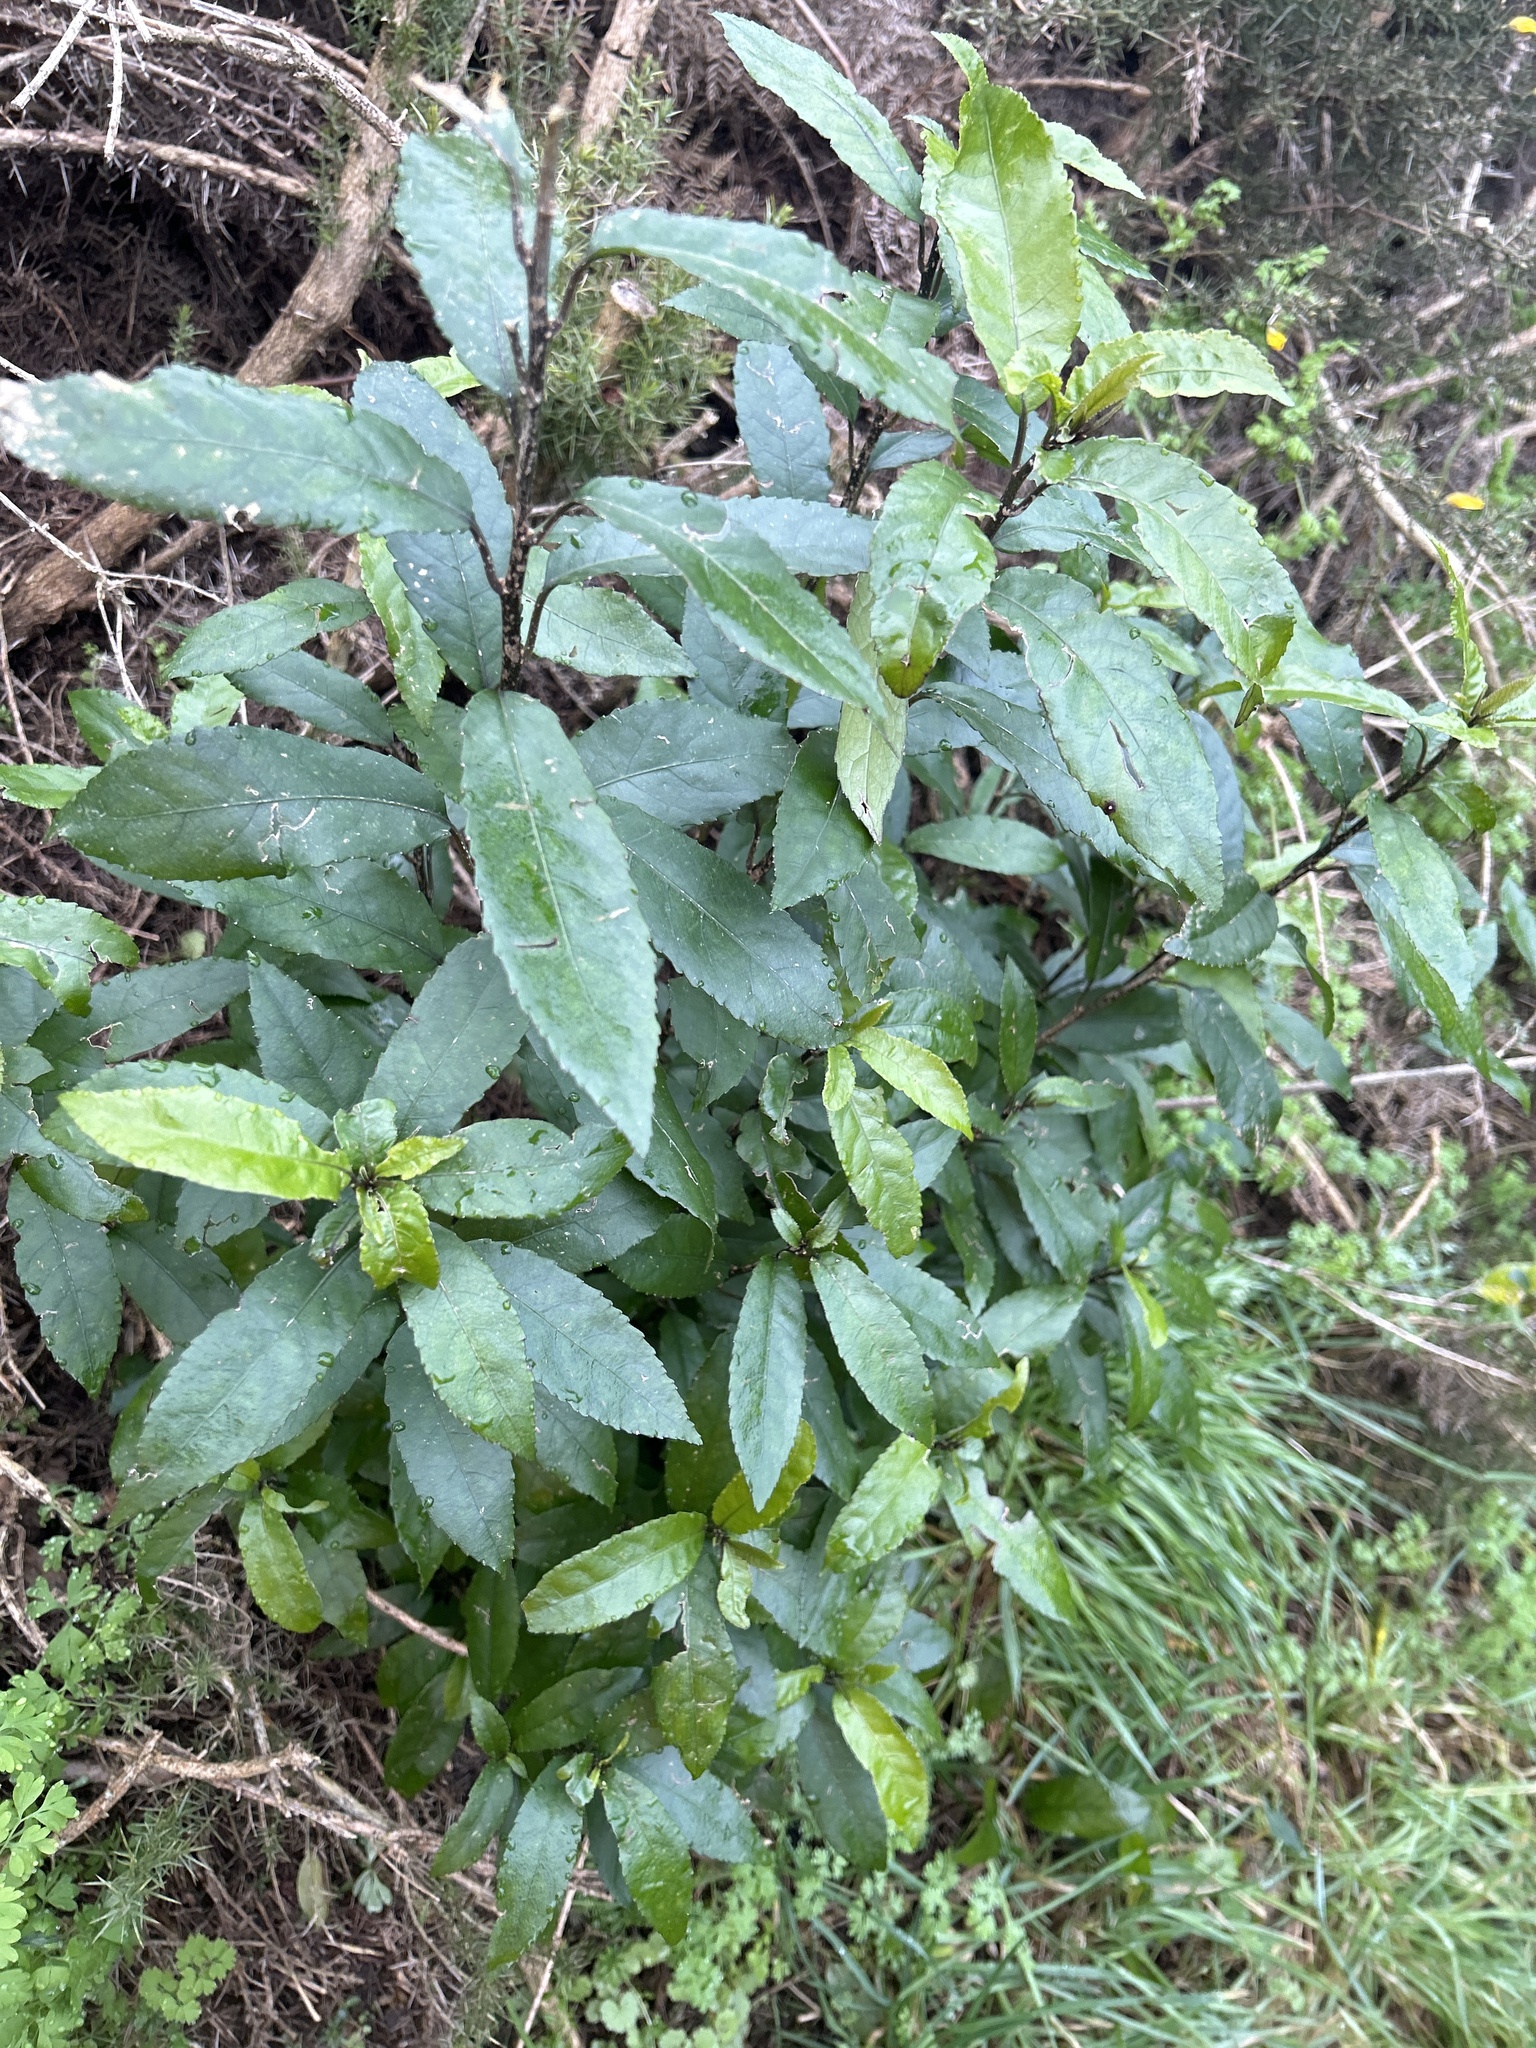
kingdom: Plantae
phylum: Tracheophyta
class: Magnoliopsida
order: Malpighiales
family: Violaceae
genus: Melicytus
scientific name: Melicytus ramiflorus
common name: Mahoe
